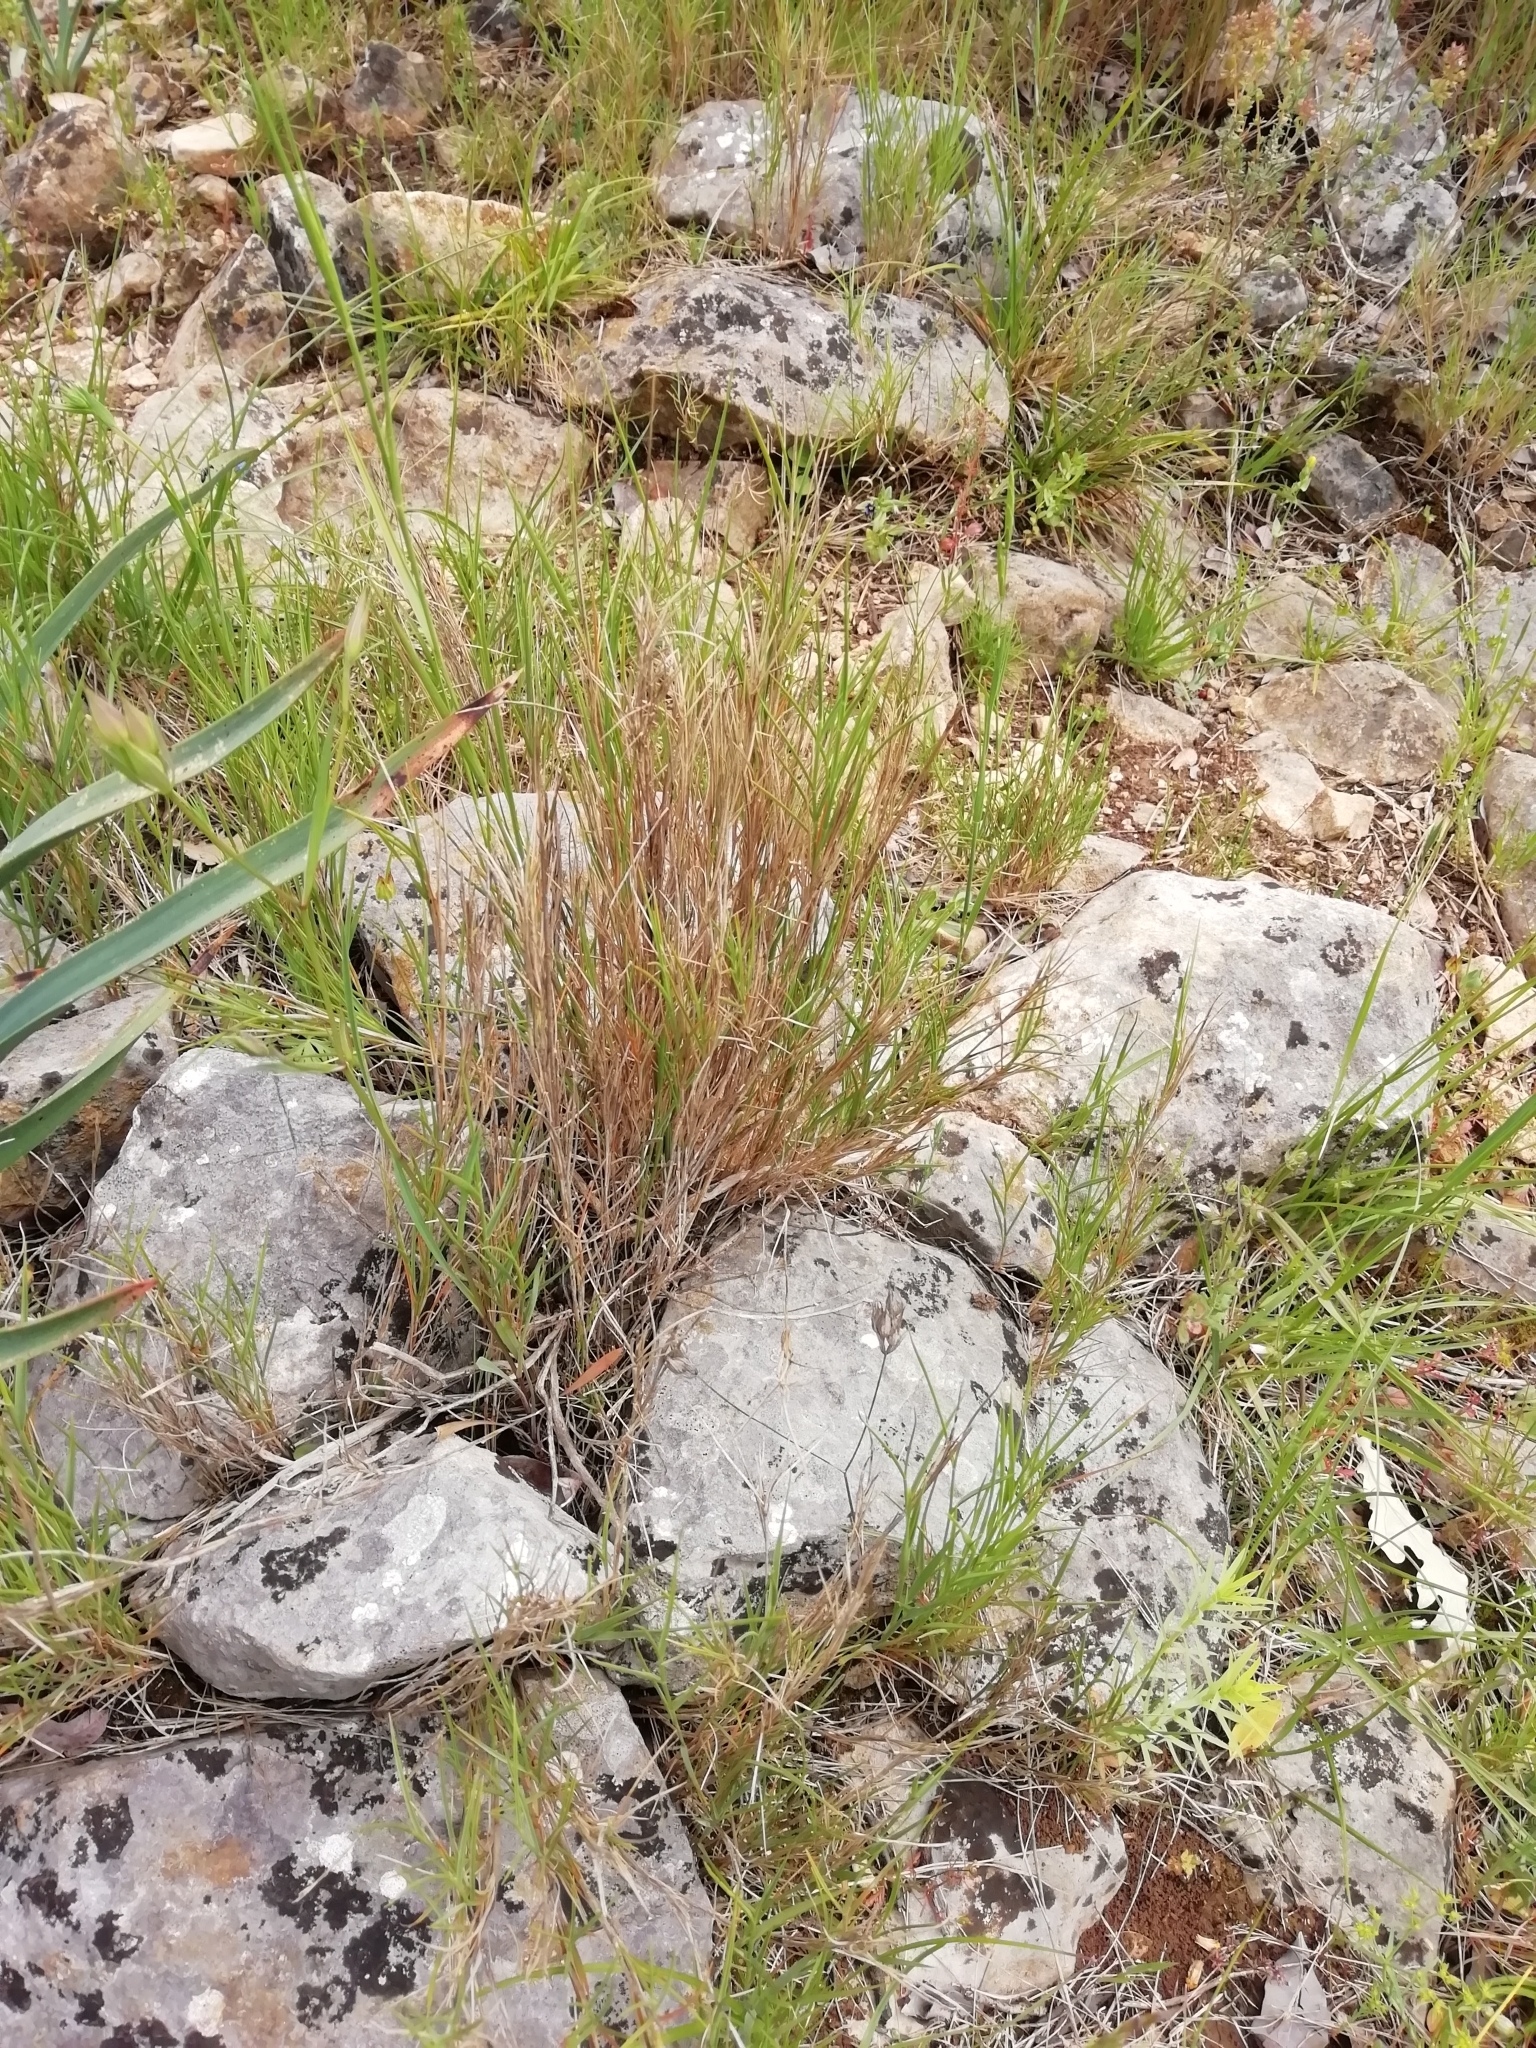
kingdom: Plantae
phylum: Tracheophyta
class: Liliopsida
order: Poales
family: Poaceae
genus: Brachypodium
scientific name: Brachypodium retusum
